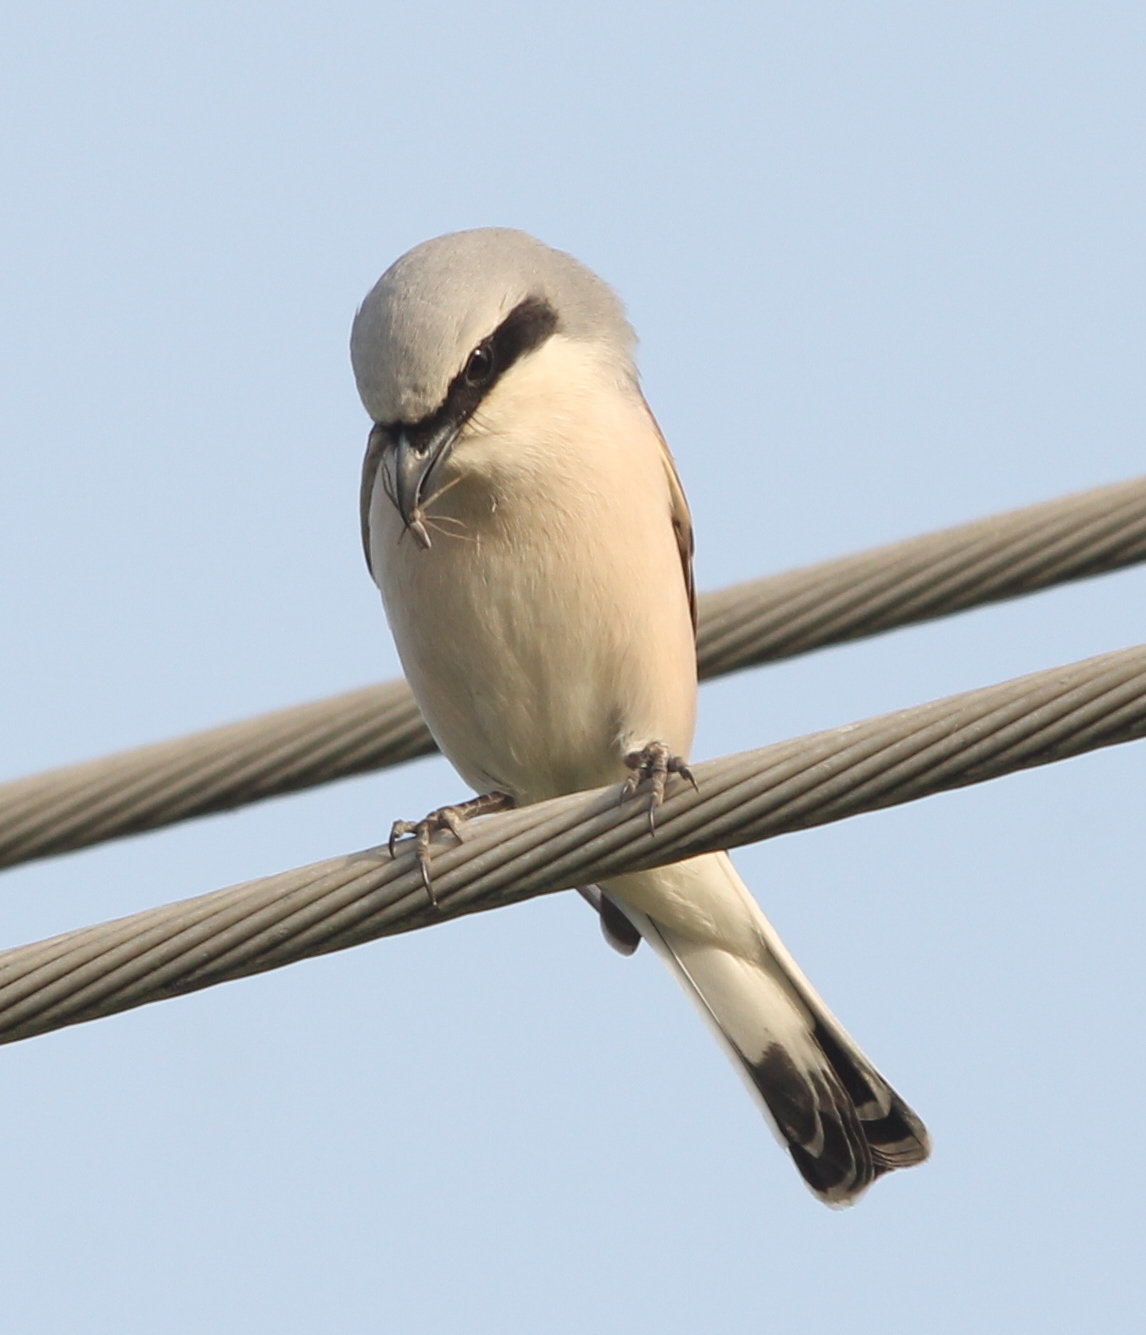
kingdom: Animalia
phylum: Chordata
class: Aves
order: Passeriformes
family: Laniidae
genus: Lanius
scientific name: Lanius collurio
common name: Red-backed shrike
